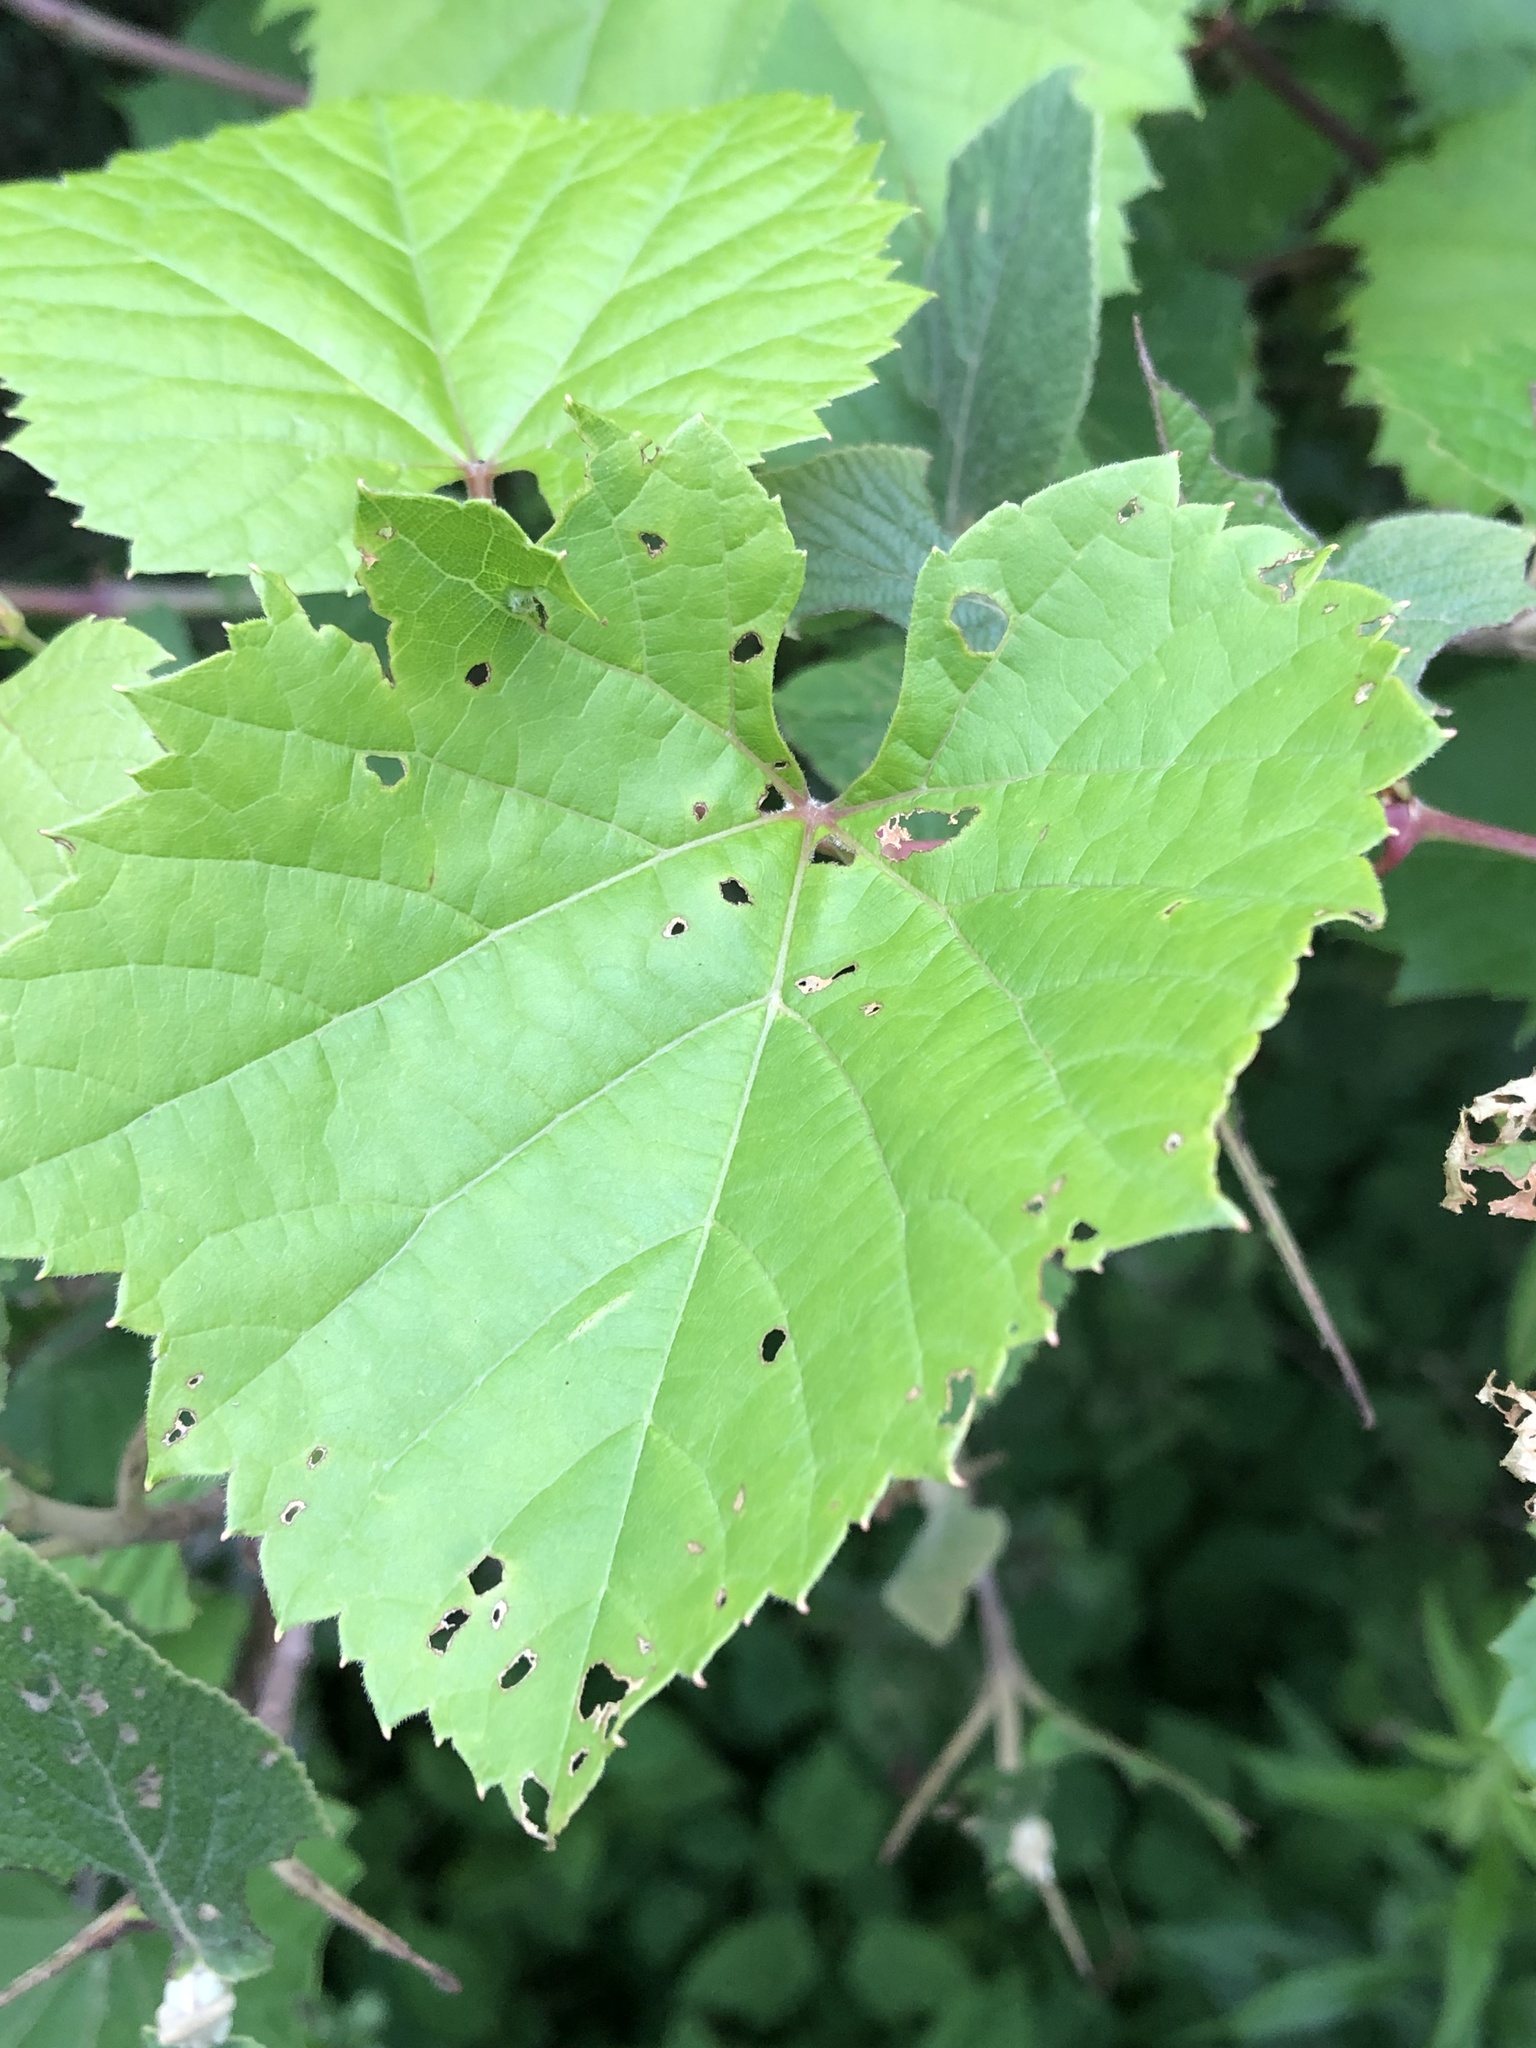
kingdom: Plantae
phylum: Tracheophyta
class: Magnoliopsida
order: Vitales
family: Vitaceae
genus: Vitis
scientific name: Vitis riparia
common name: Frost grape
